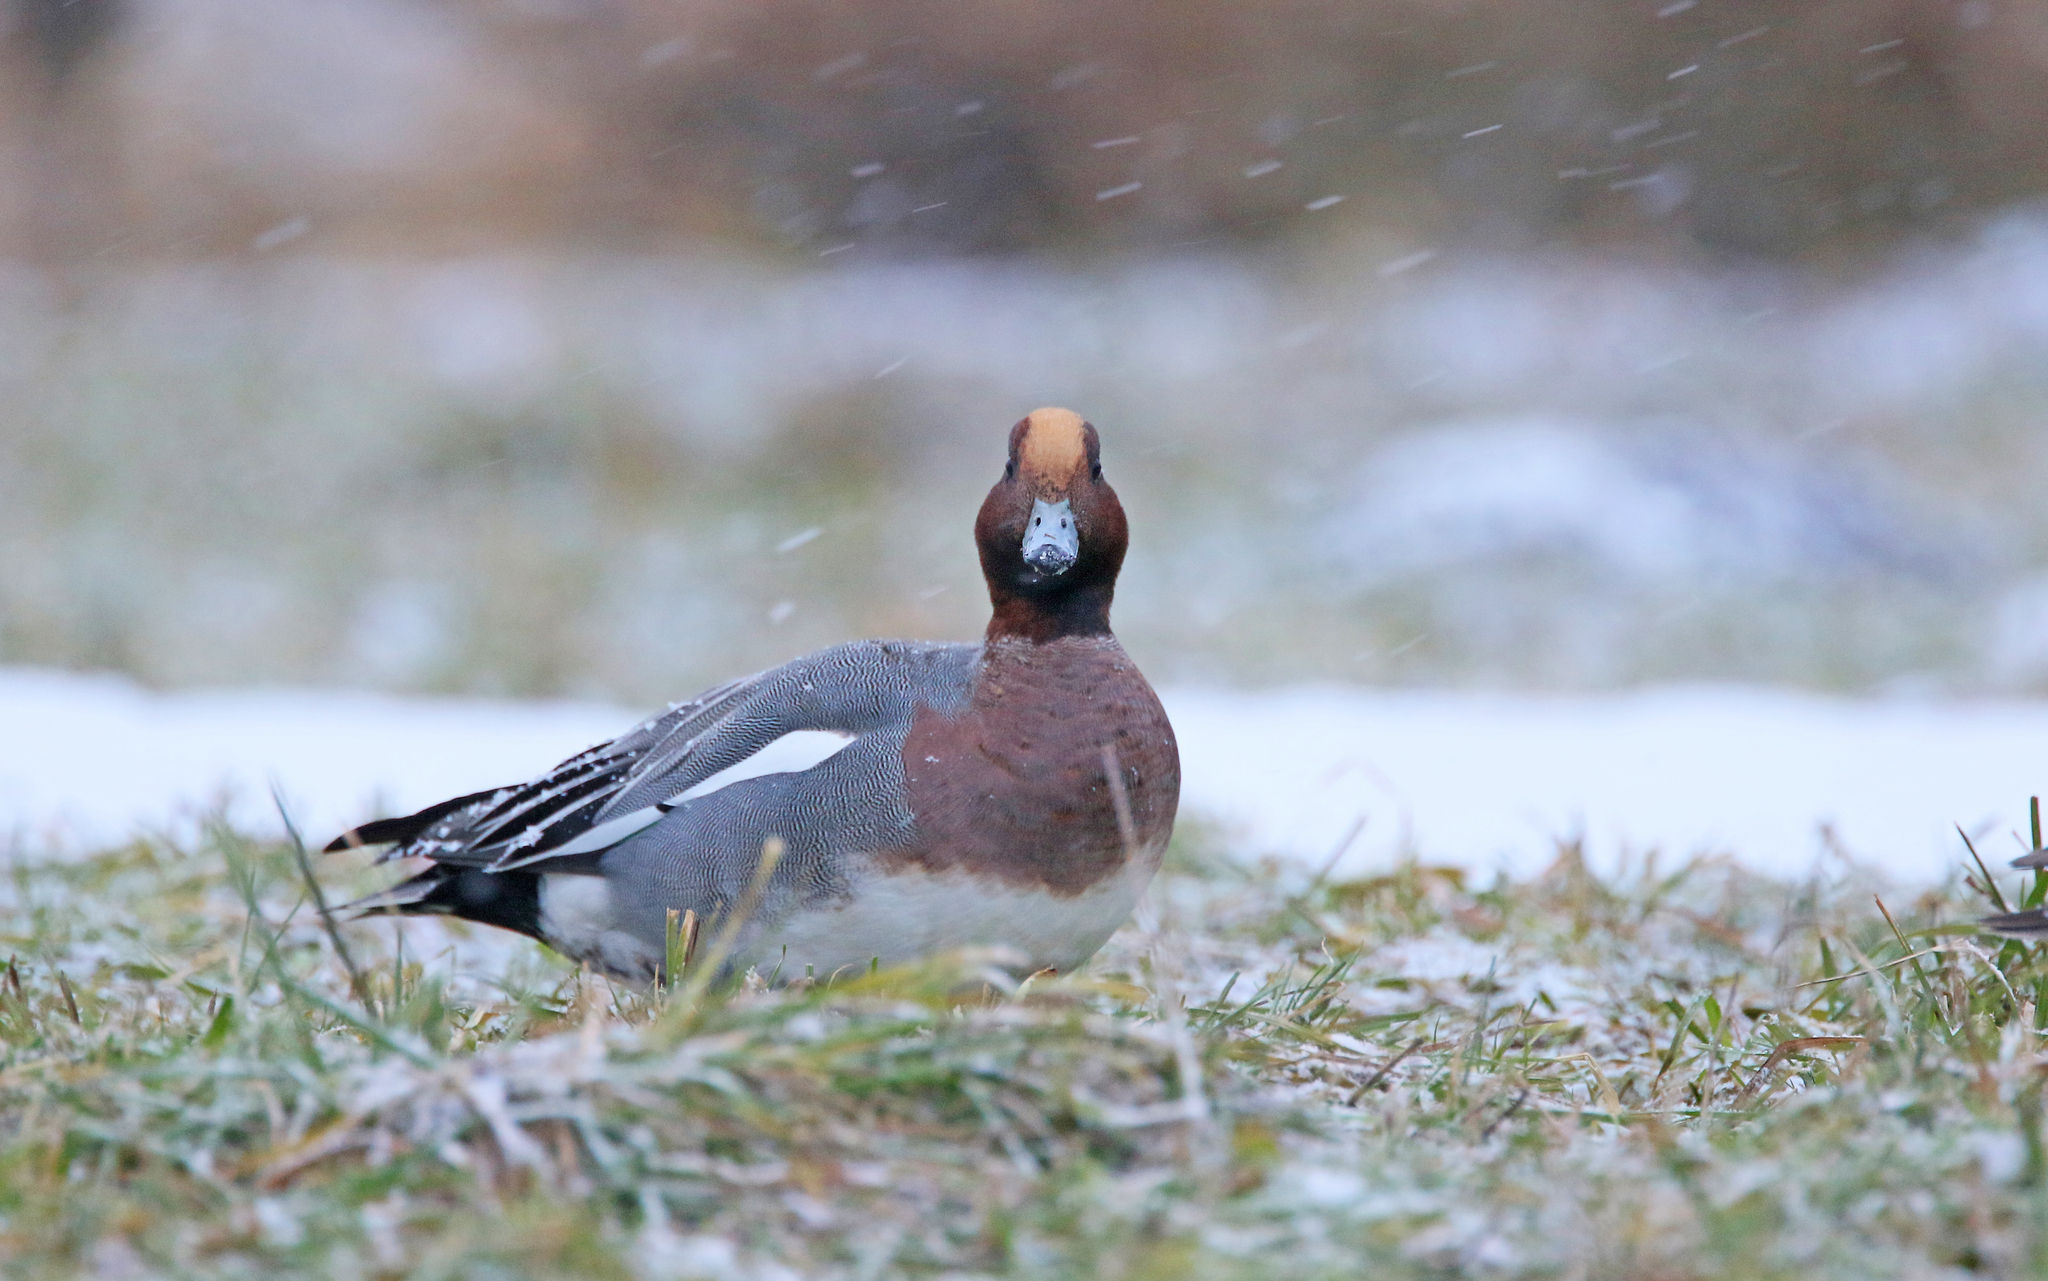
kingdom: Animalia
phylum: Chordata
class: Aves
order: Anseriformes
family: Anatidae
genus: Mareca
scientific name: Mareca penelope
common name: Eurasian wigeon
